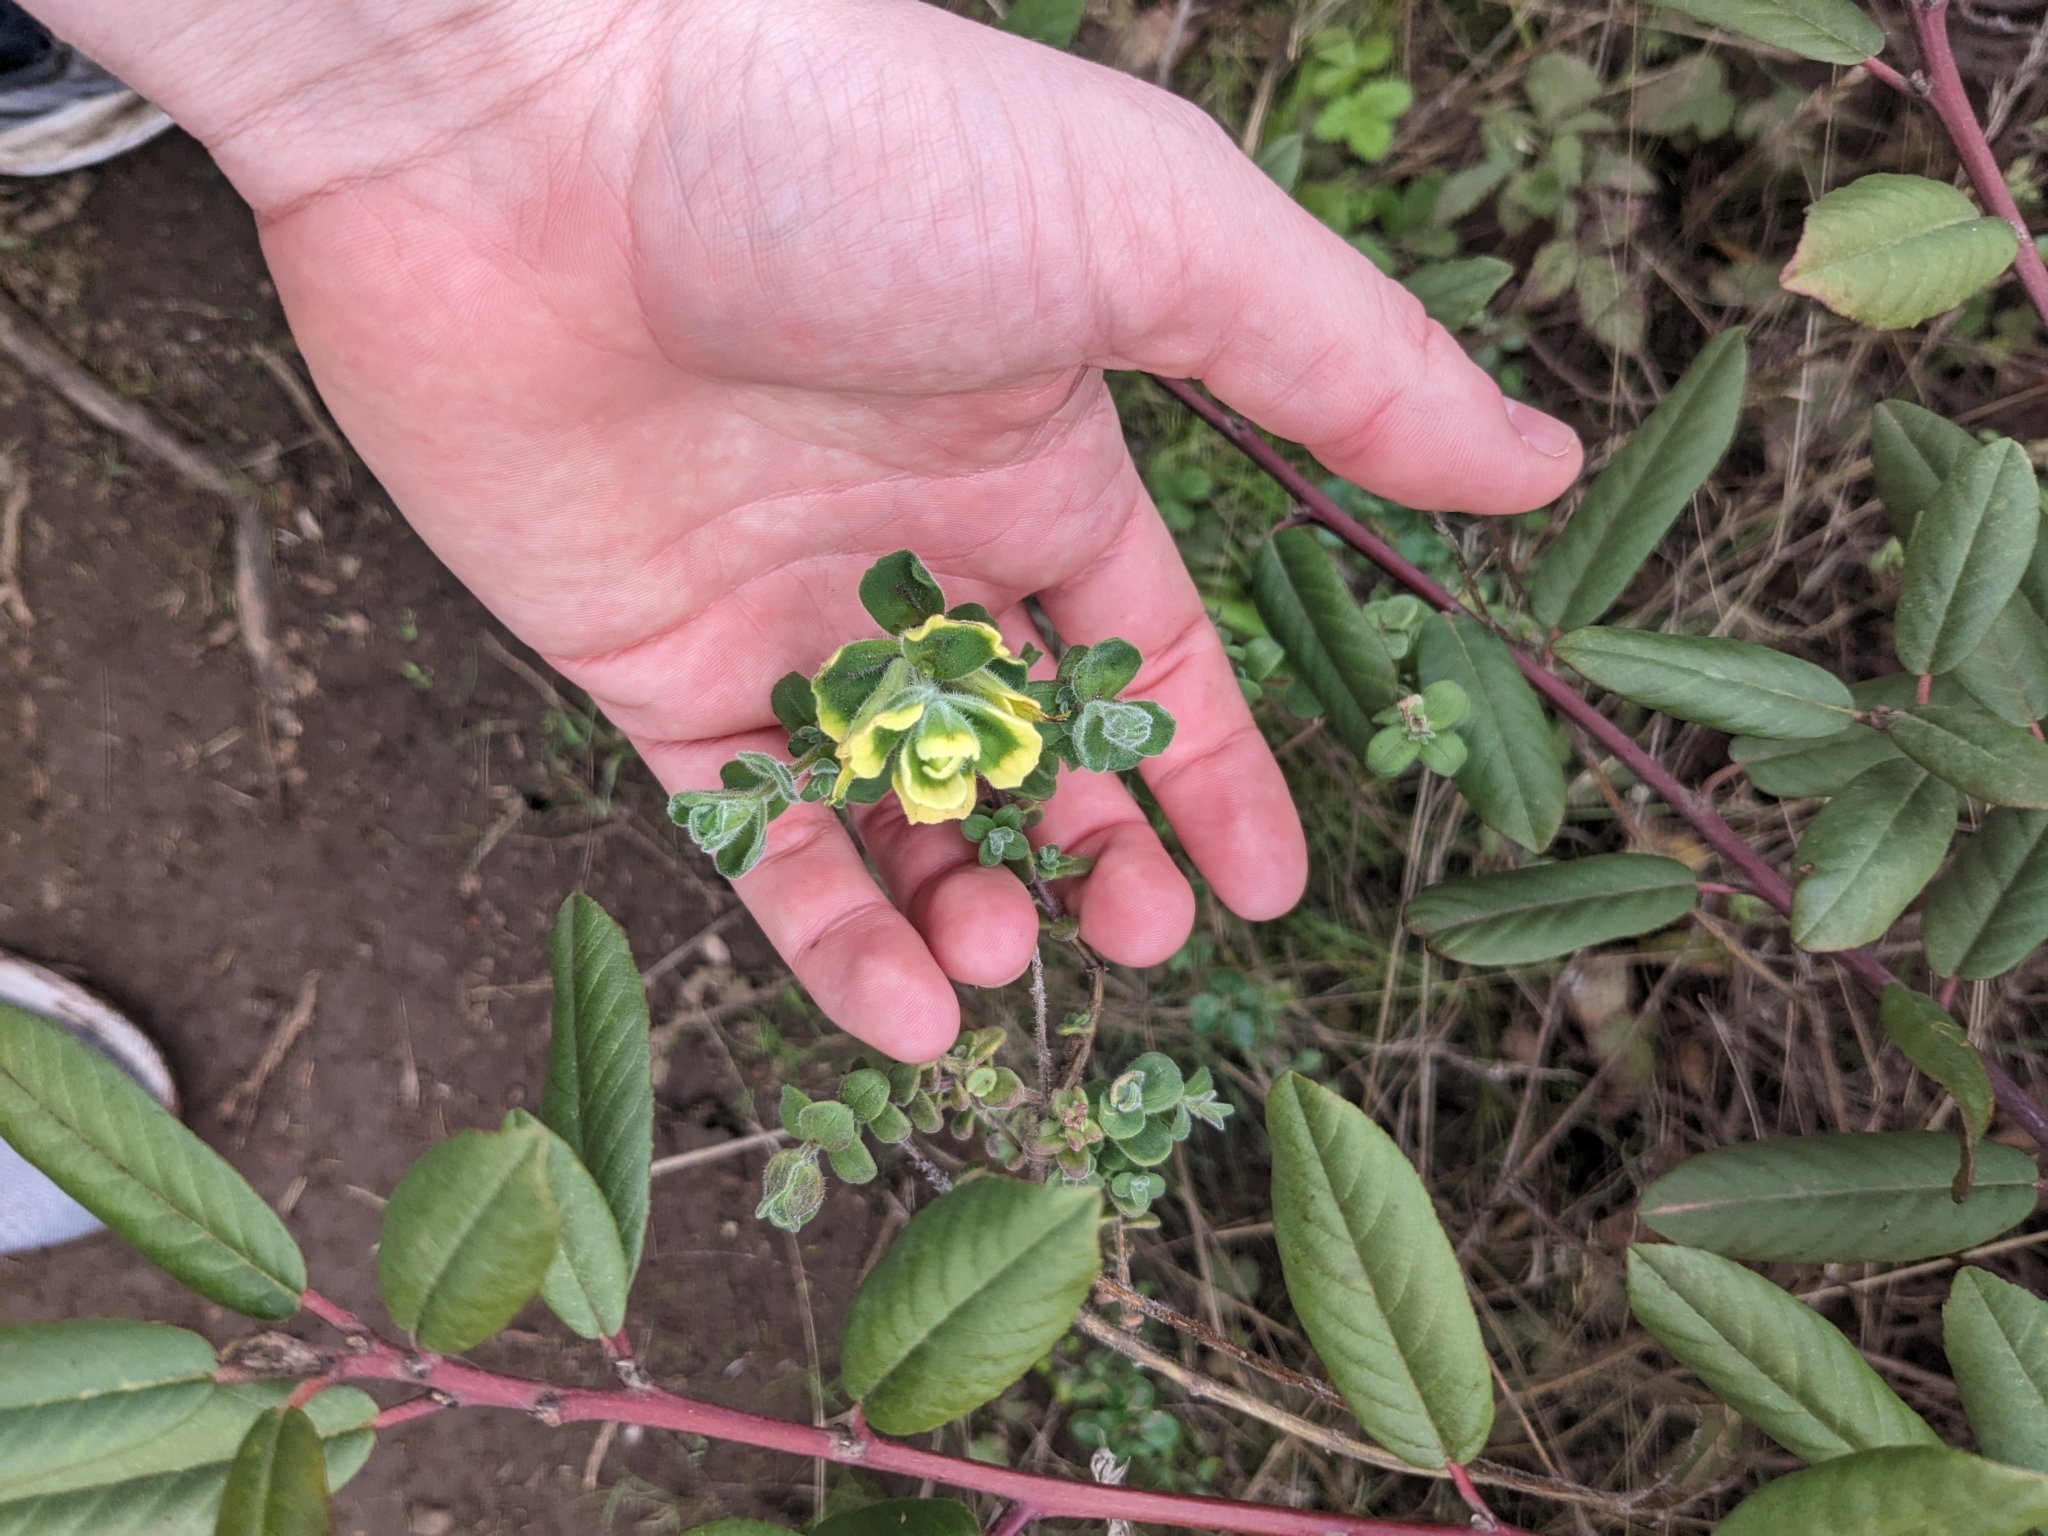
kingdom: Plantae
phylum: Tracheophyta
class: Magnoliopsida
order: Lamiales
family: Orobanchaceae
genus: Castilleja
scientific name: Castilleja latifolia
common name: Monterey indian paintbrush
